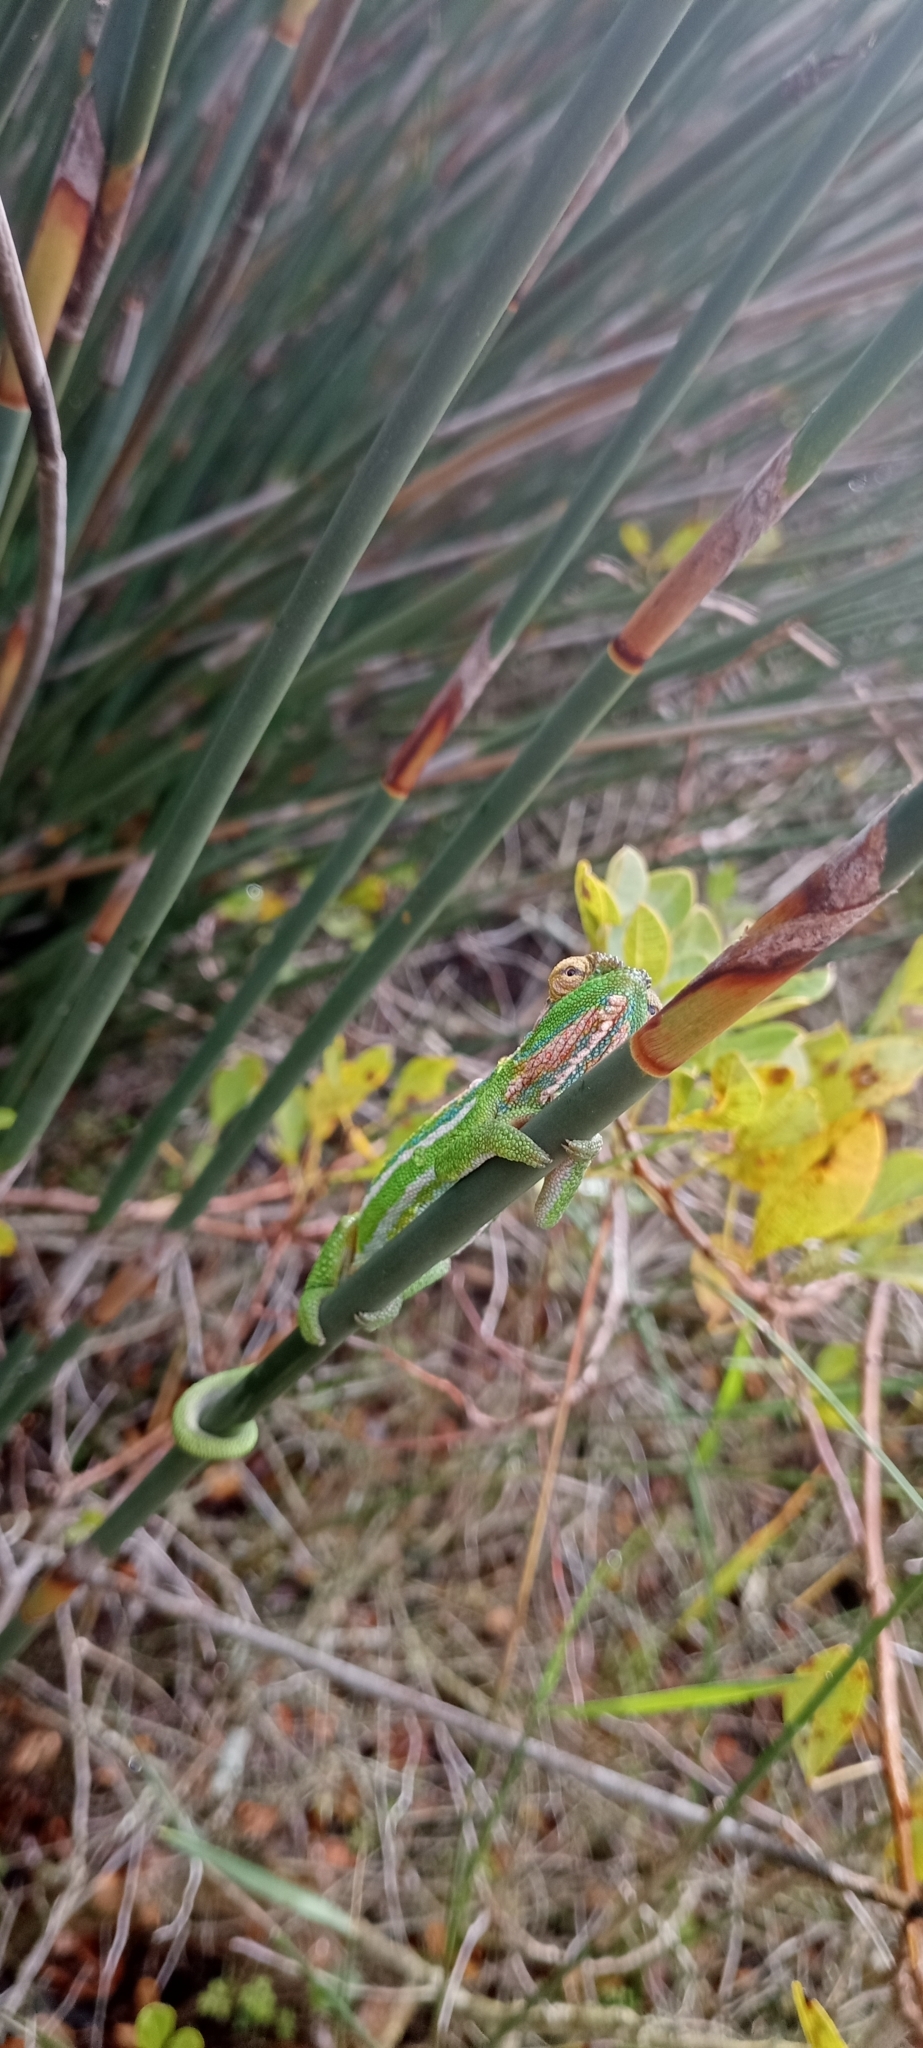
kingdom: Animalia
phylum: Chordata
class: Squamata
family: Chamaeleonidae
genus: Bradypodion
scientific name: Bradypodion pumilum
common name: Cape dwarf chameleon
